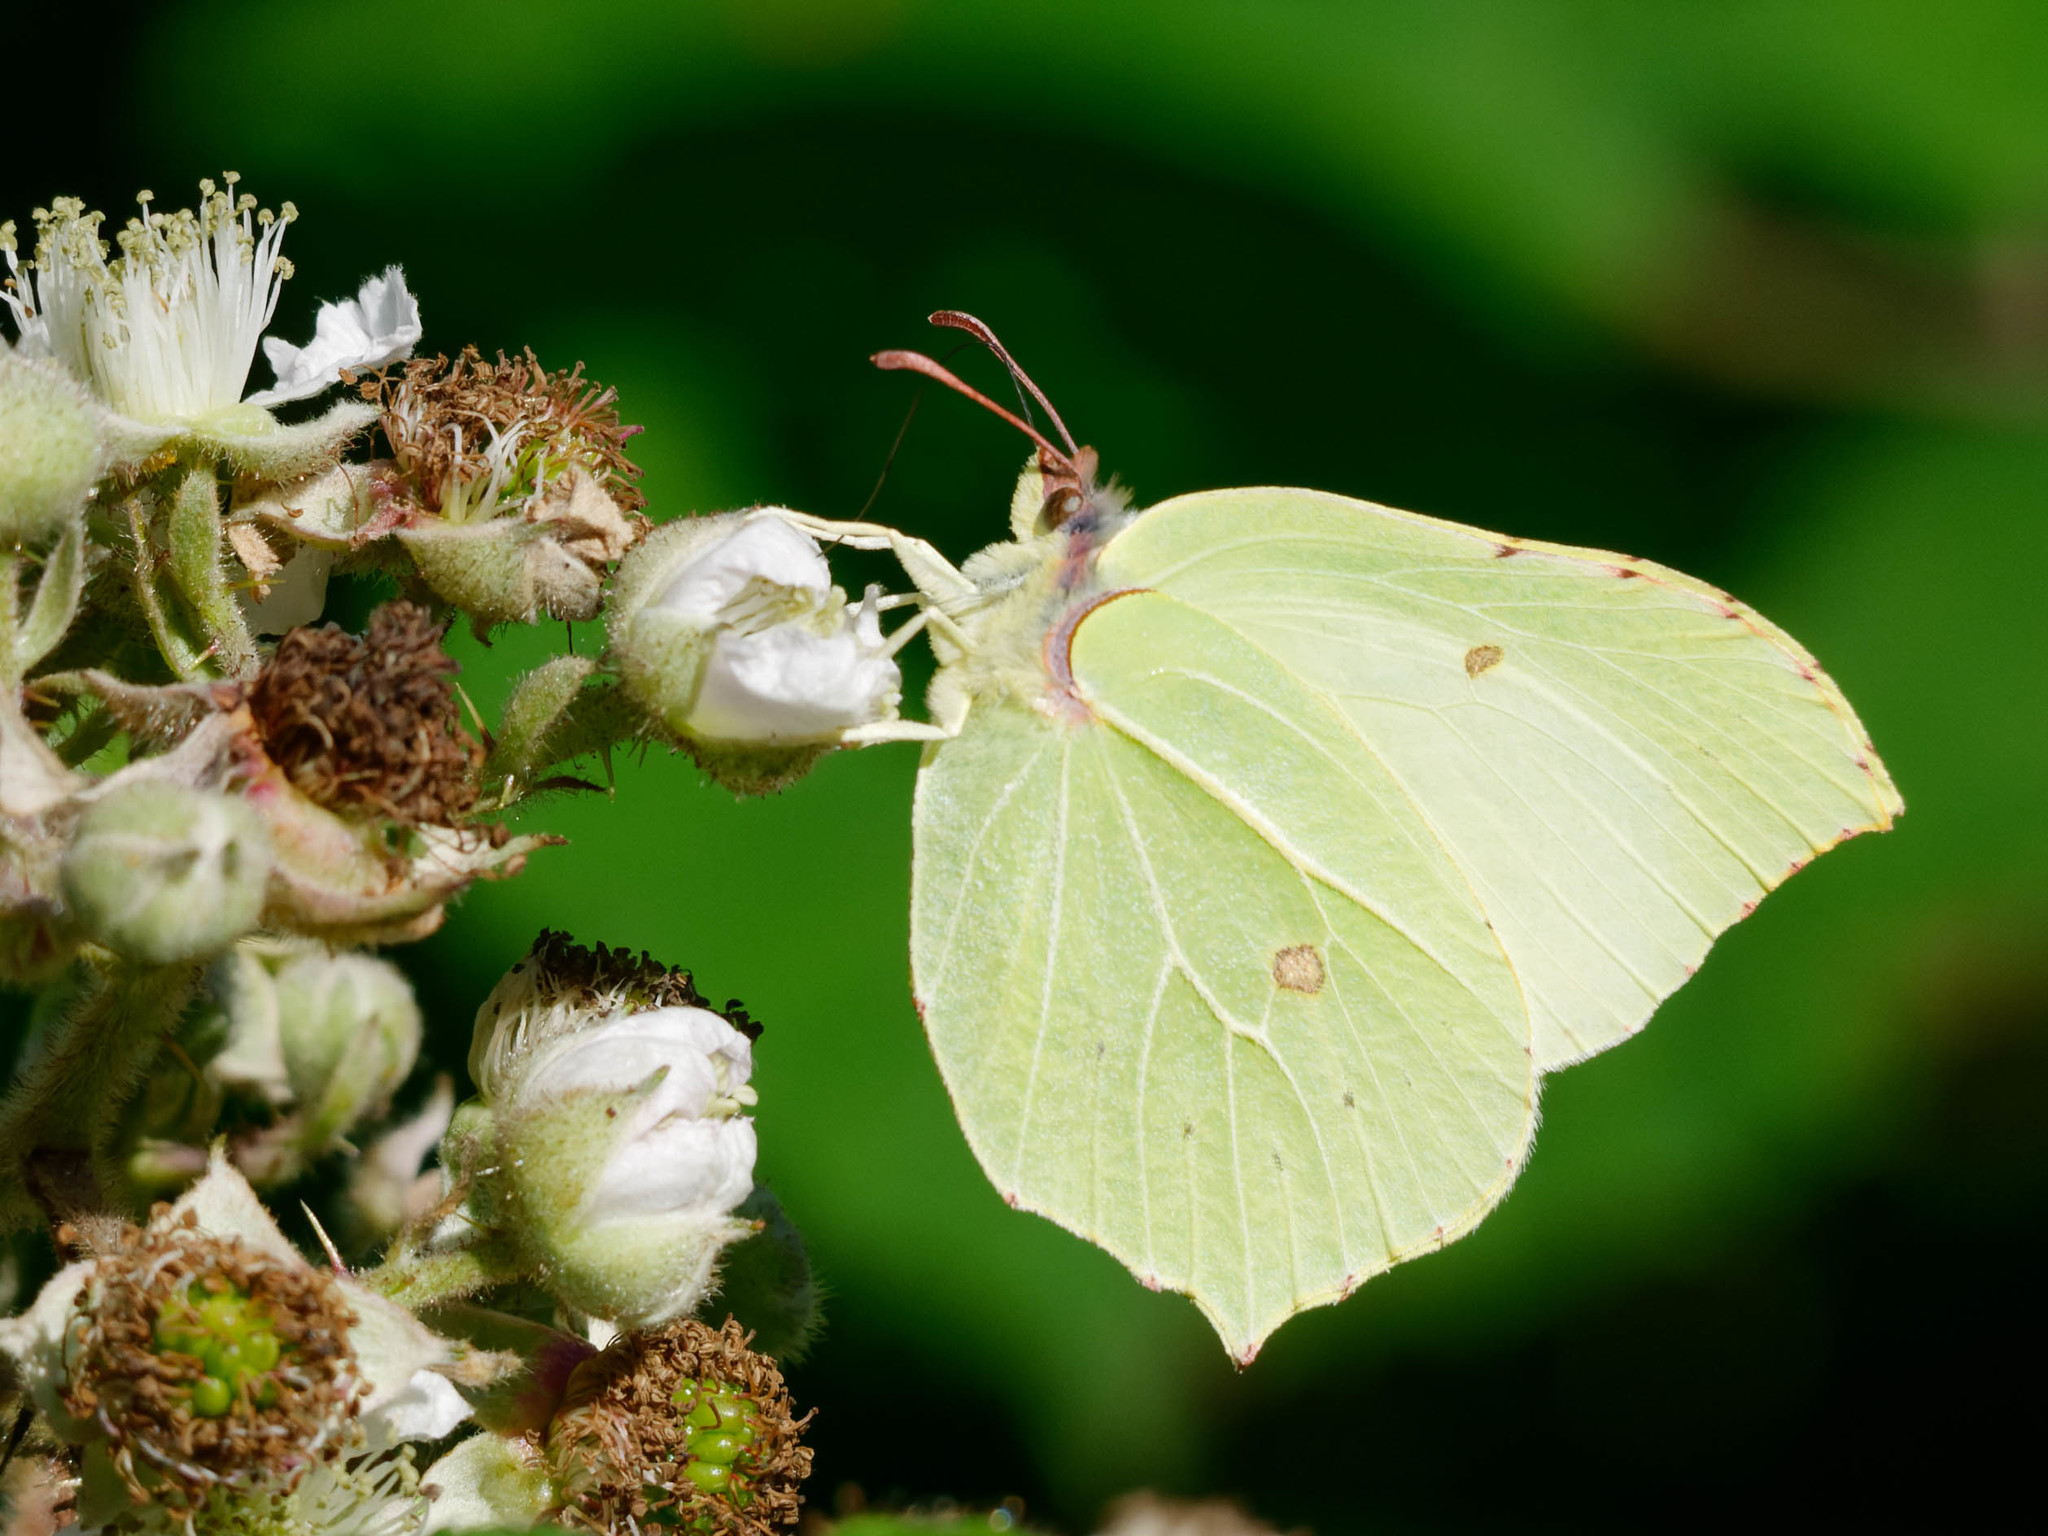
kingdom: Animalia
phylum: Arthropoda
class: Insecta
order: Lepidoptera
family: Pieridae
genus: Gonepteryx
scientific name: Gonepteryx rhamni
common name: Brimstone
